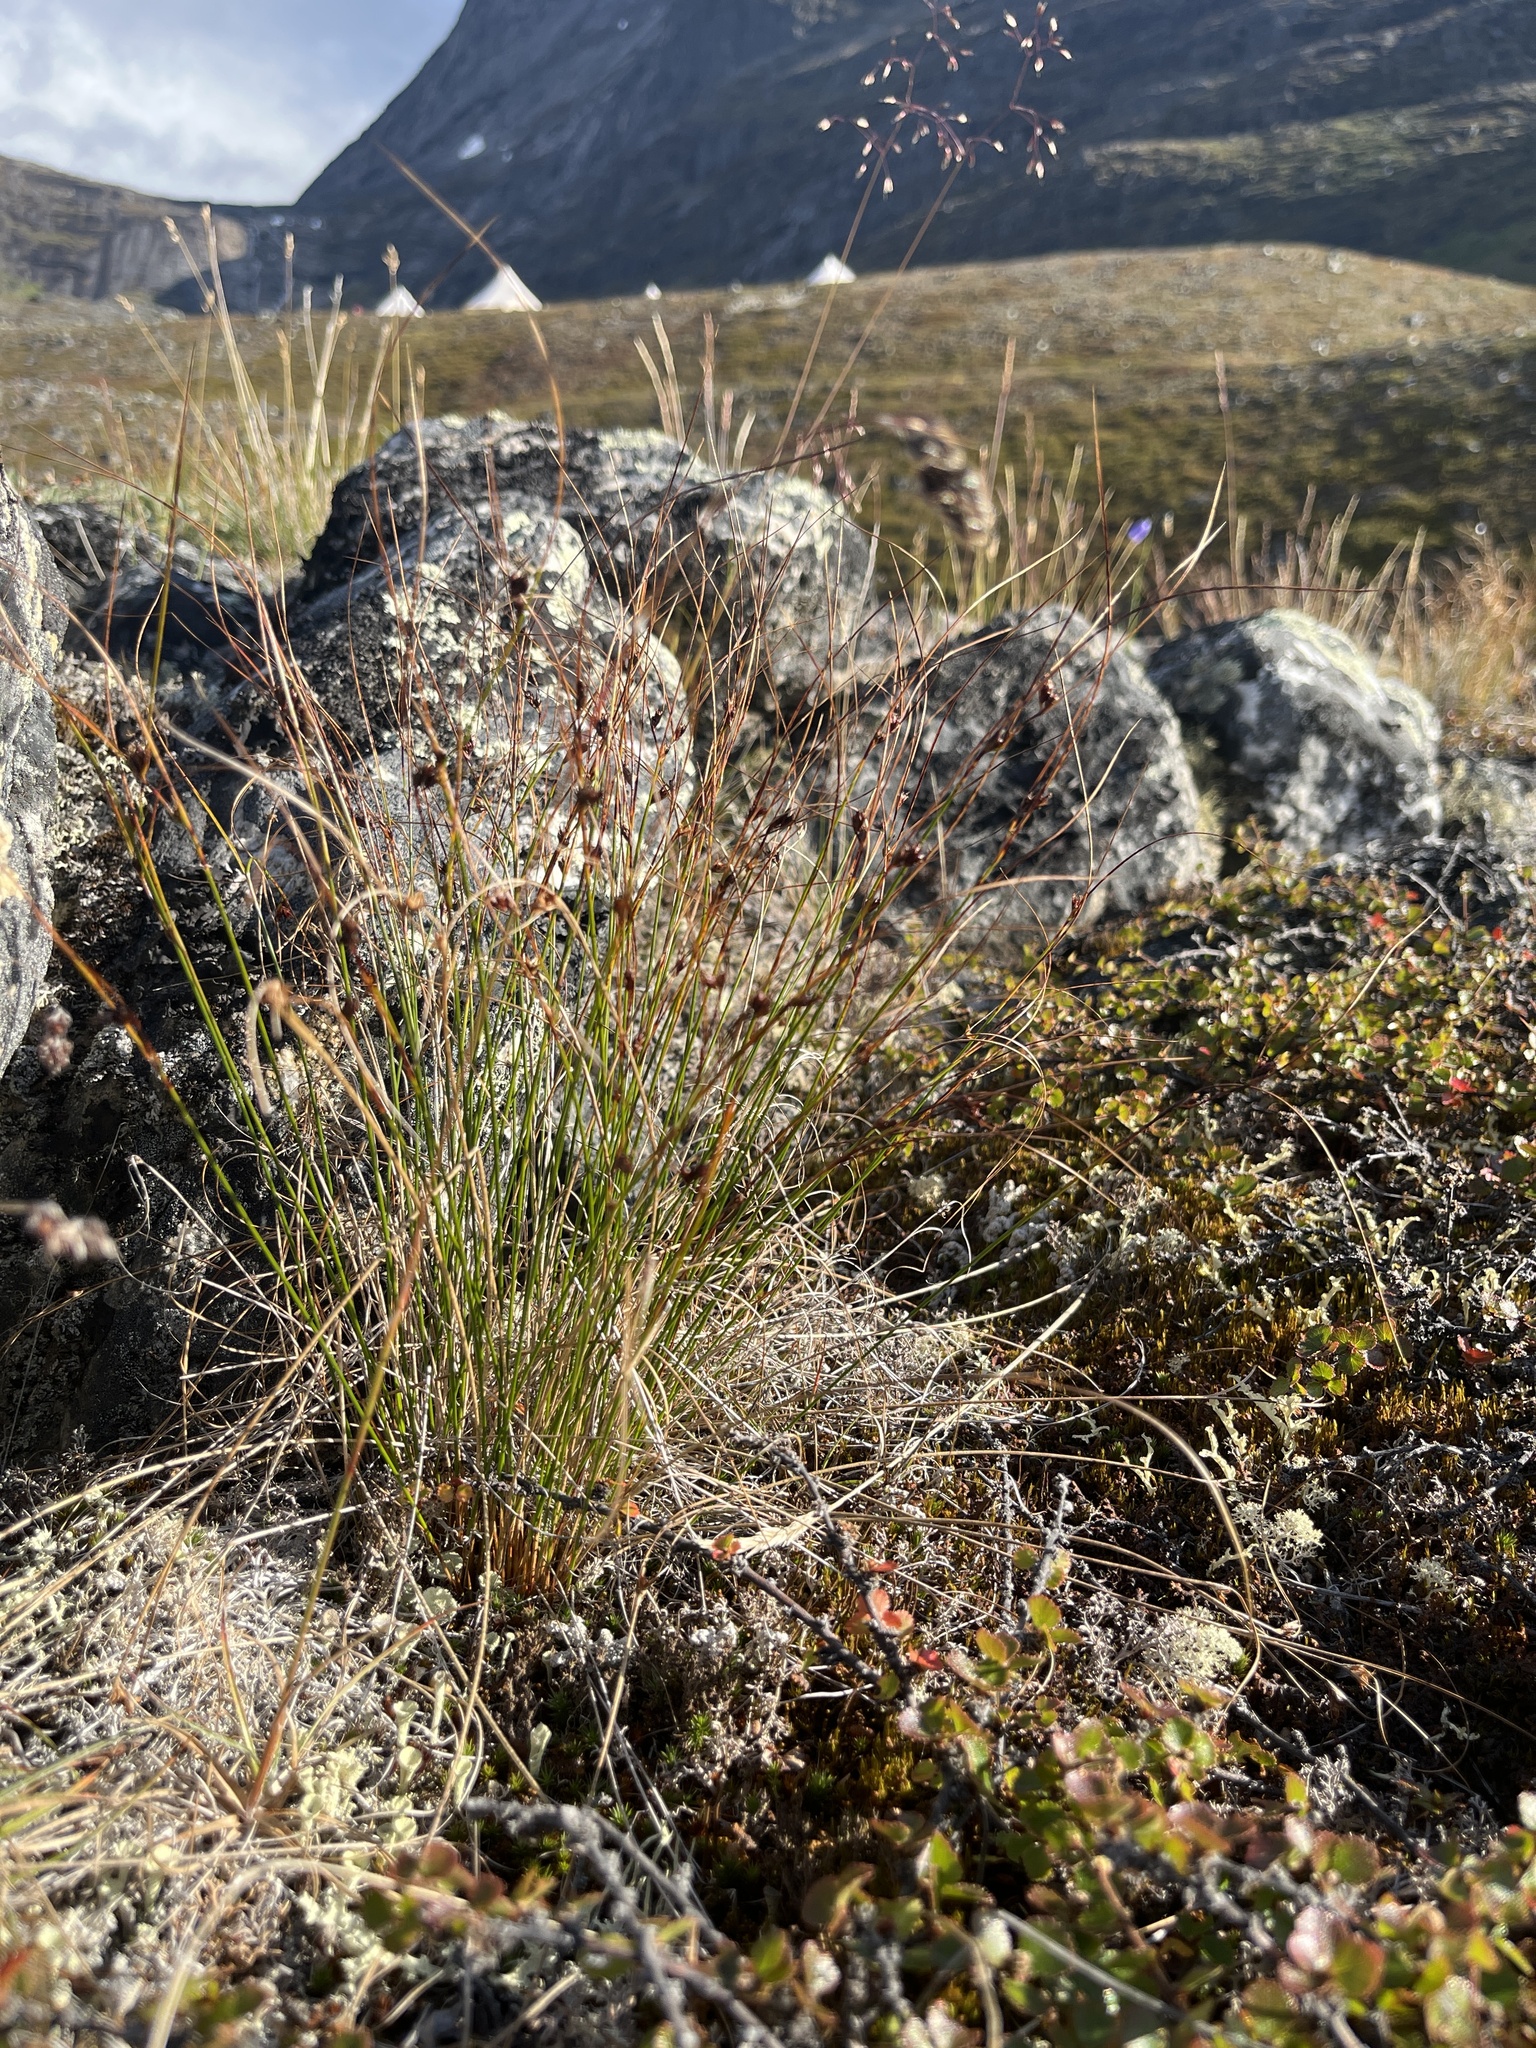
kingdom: Plantae
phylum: Tracheophyta
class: Liliopsida
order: Poales
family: Juncaceae
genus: Oreojuncus
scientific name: Oreojuncus trifidus
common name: Highland rush
